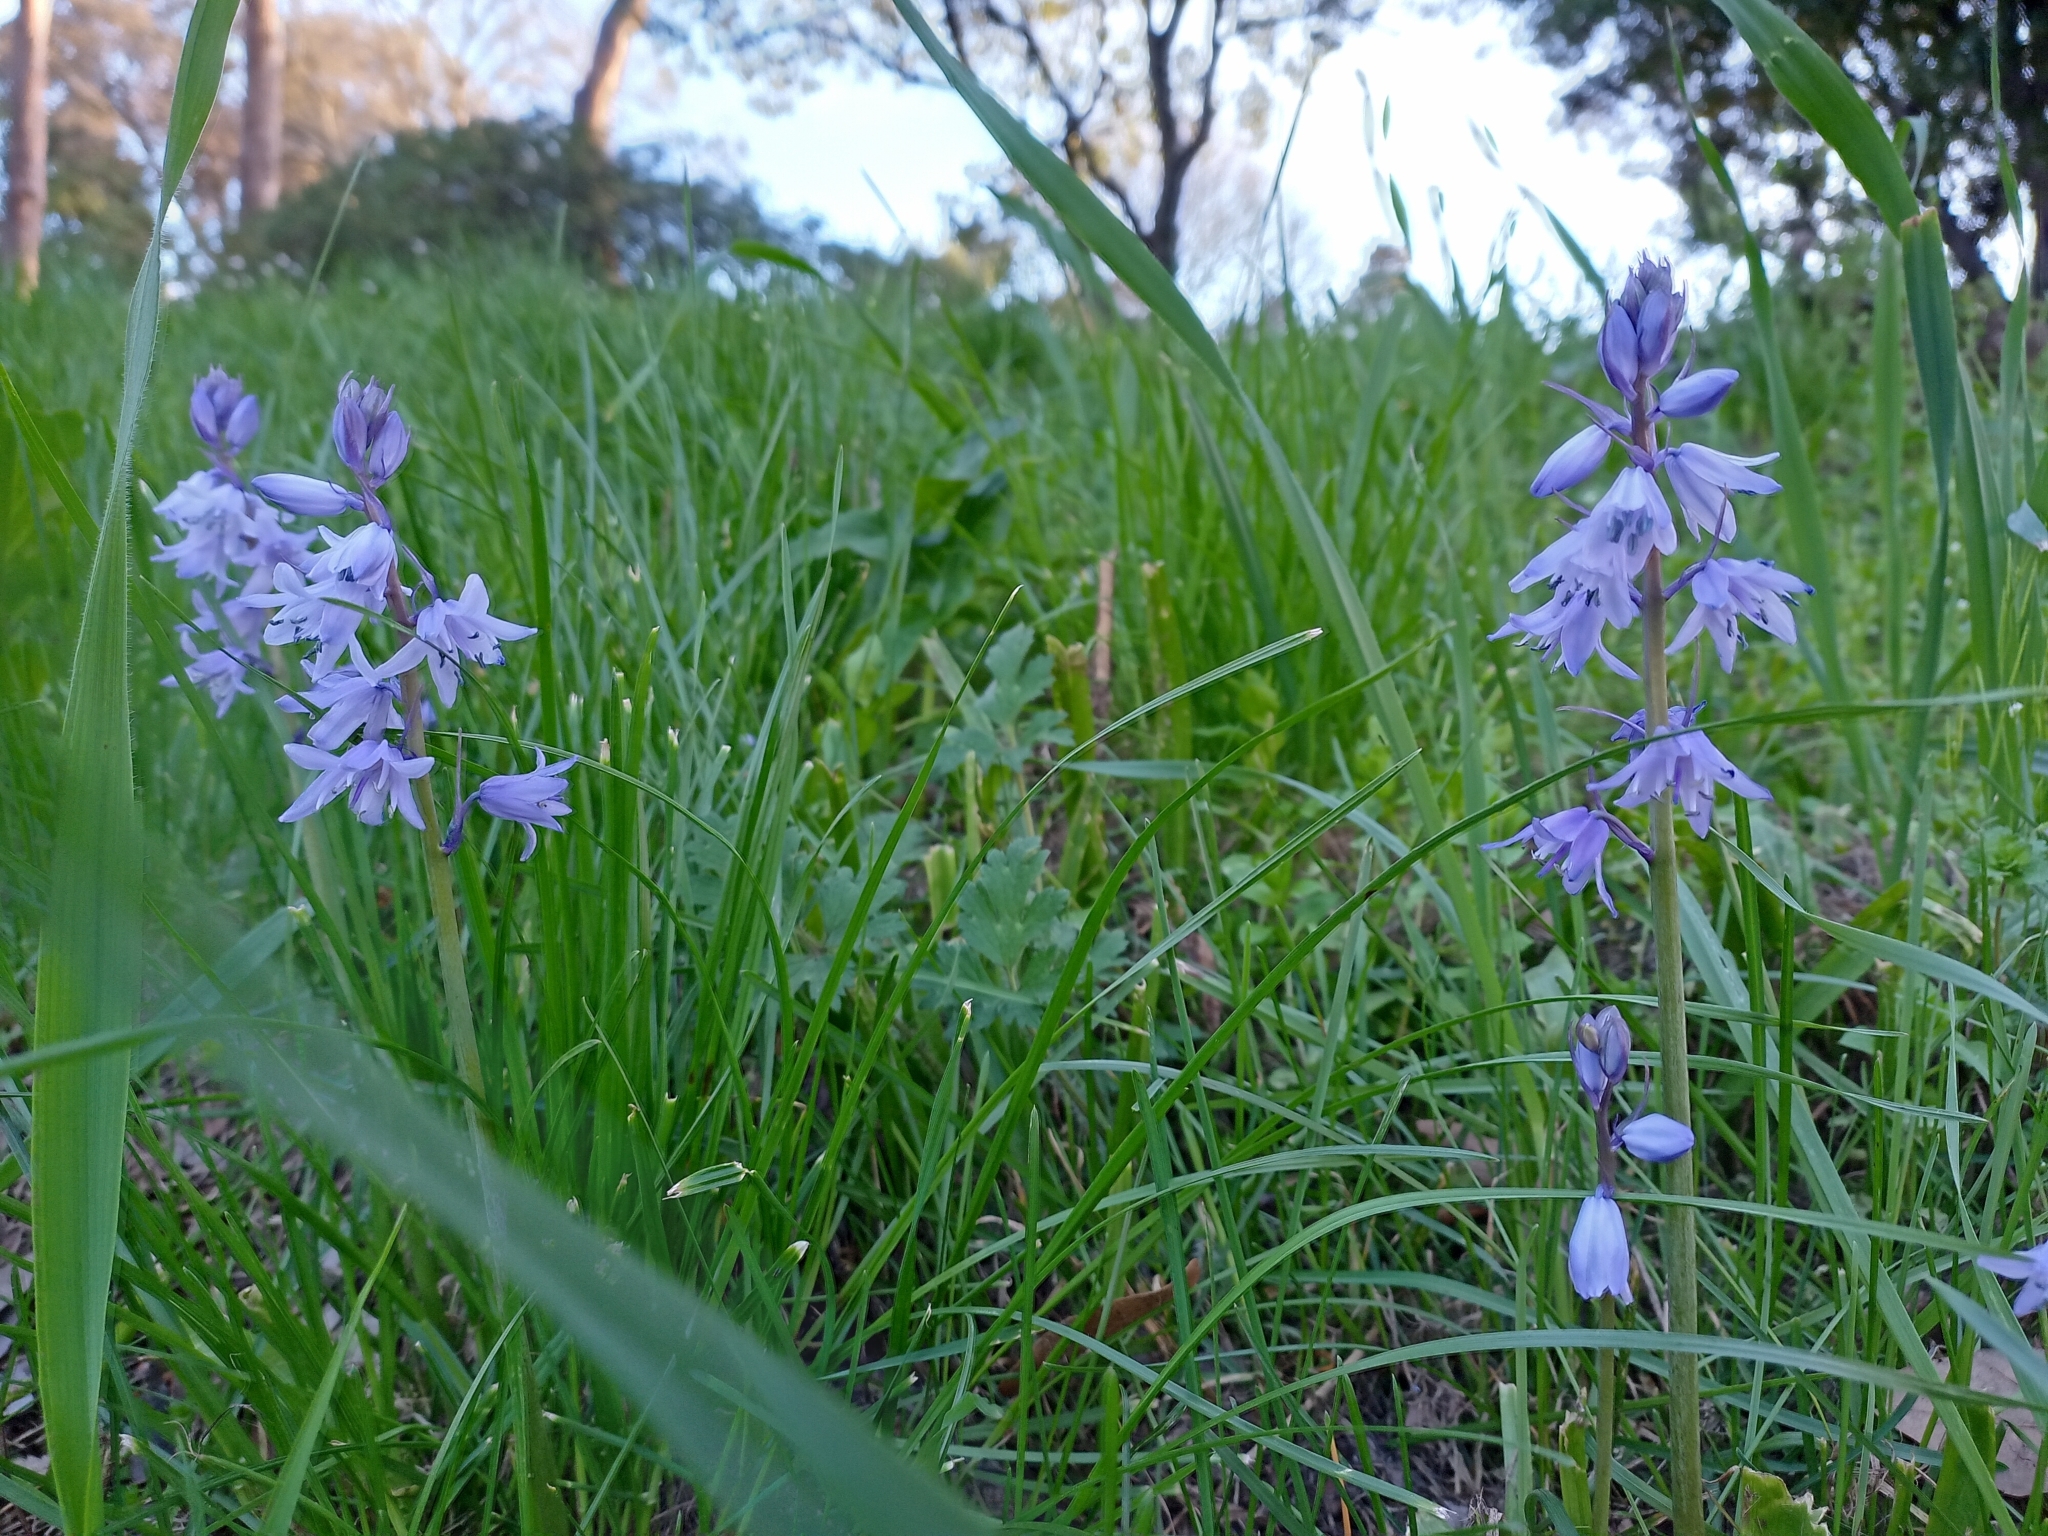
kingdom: Plantae
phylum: Tracheophyta
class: Liliopsida
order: Asparagales
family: Asparagaceae
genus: Hyacinthoides
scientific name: Hyacinthoides hispanica
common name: Spanish bluebell
